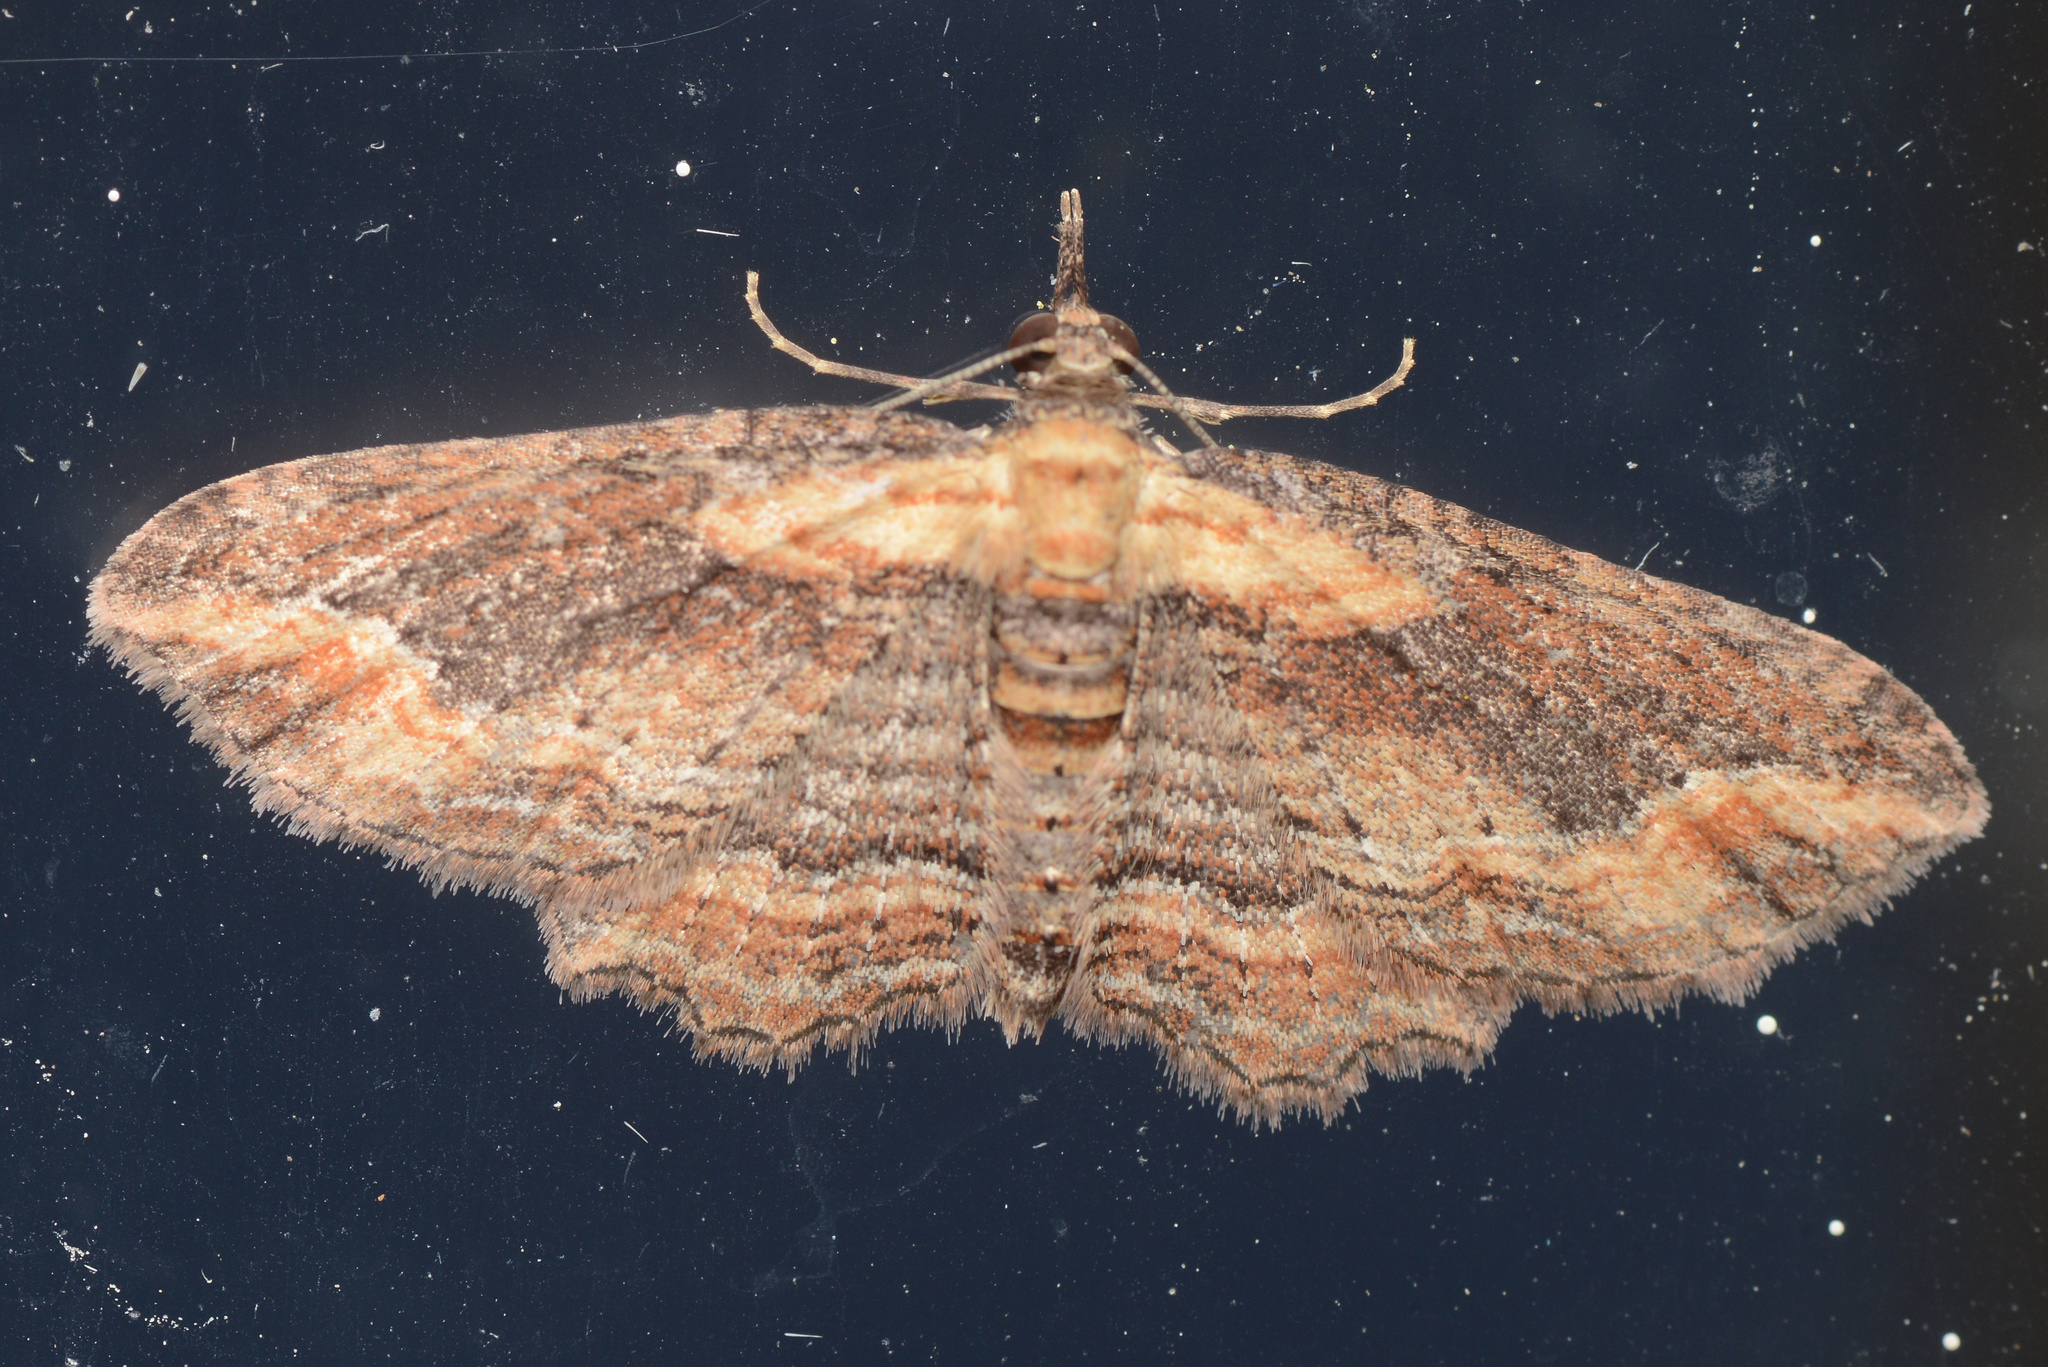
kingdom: Animalia
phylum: Arthropoda
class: Insecta
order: Lepidoptera
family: Geometridae
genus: Chloroclystis
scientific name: Chloroclystis filata
